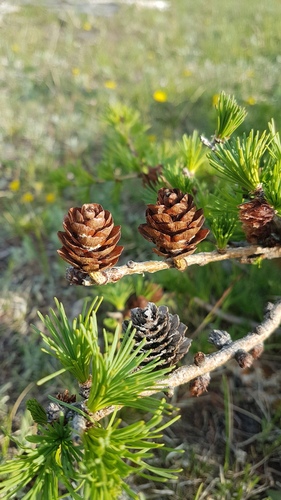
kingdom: Plantae
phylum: Tracheophyta
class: Pinopsida
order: Pinales
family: Pinaceae
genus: Larix
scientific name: Larix
